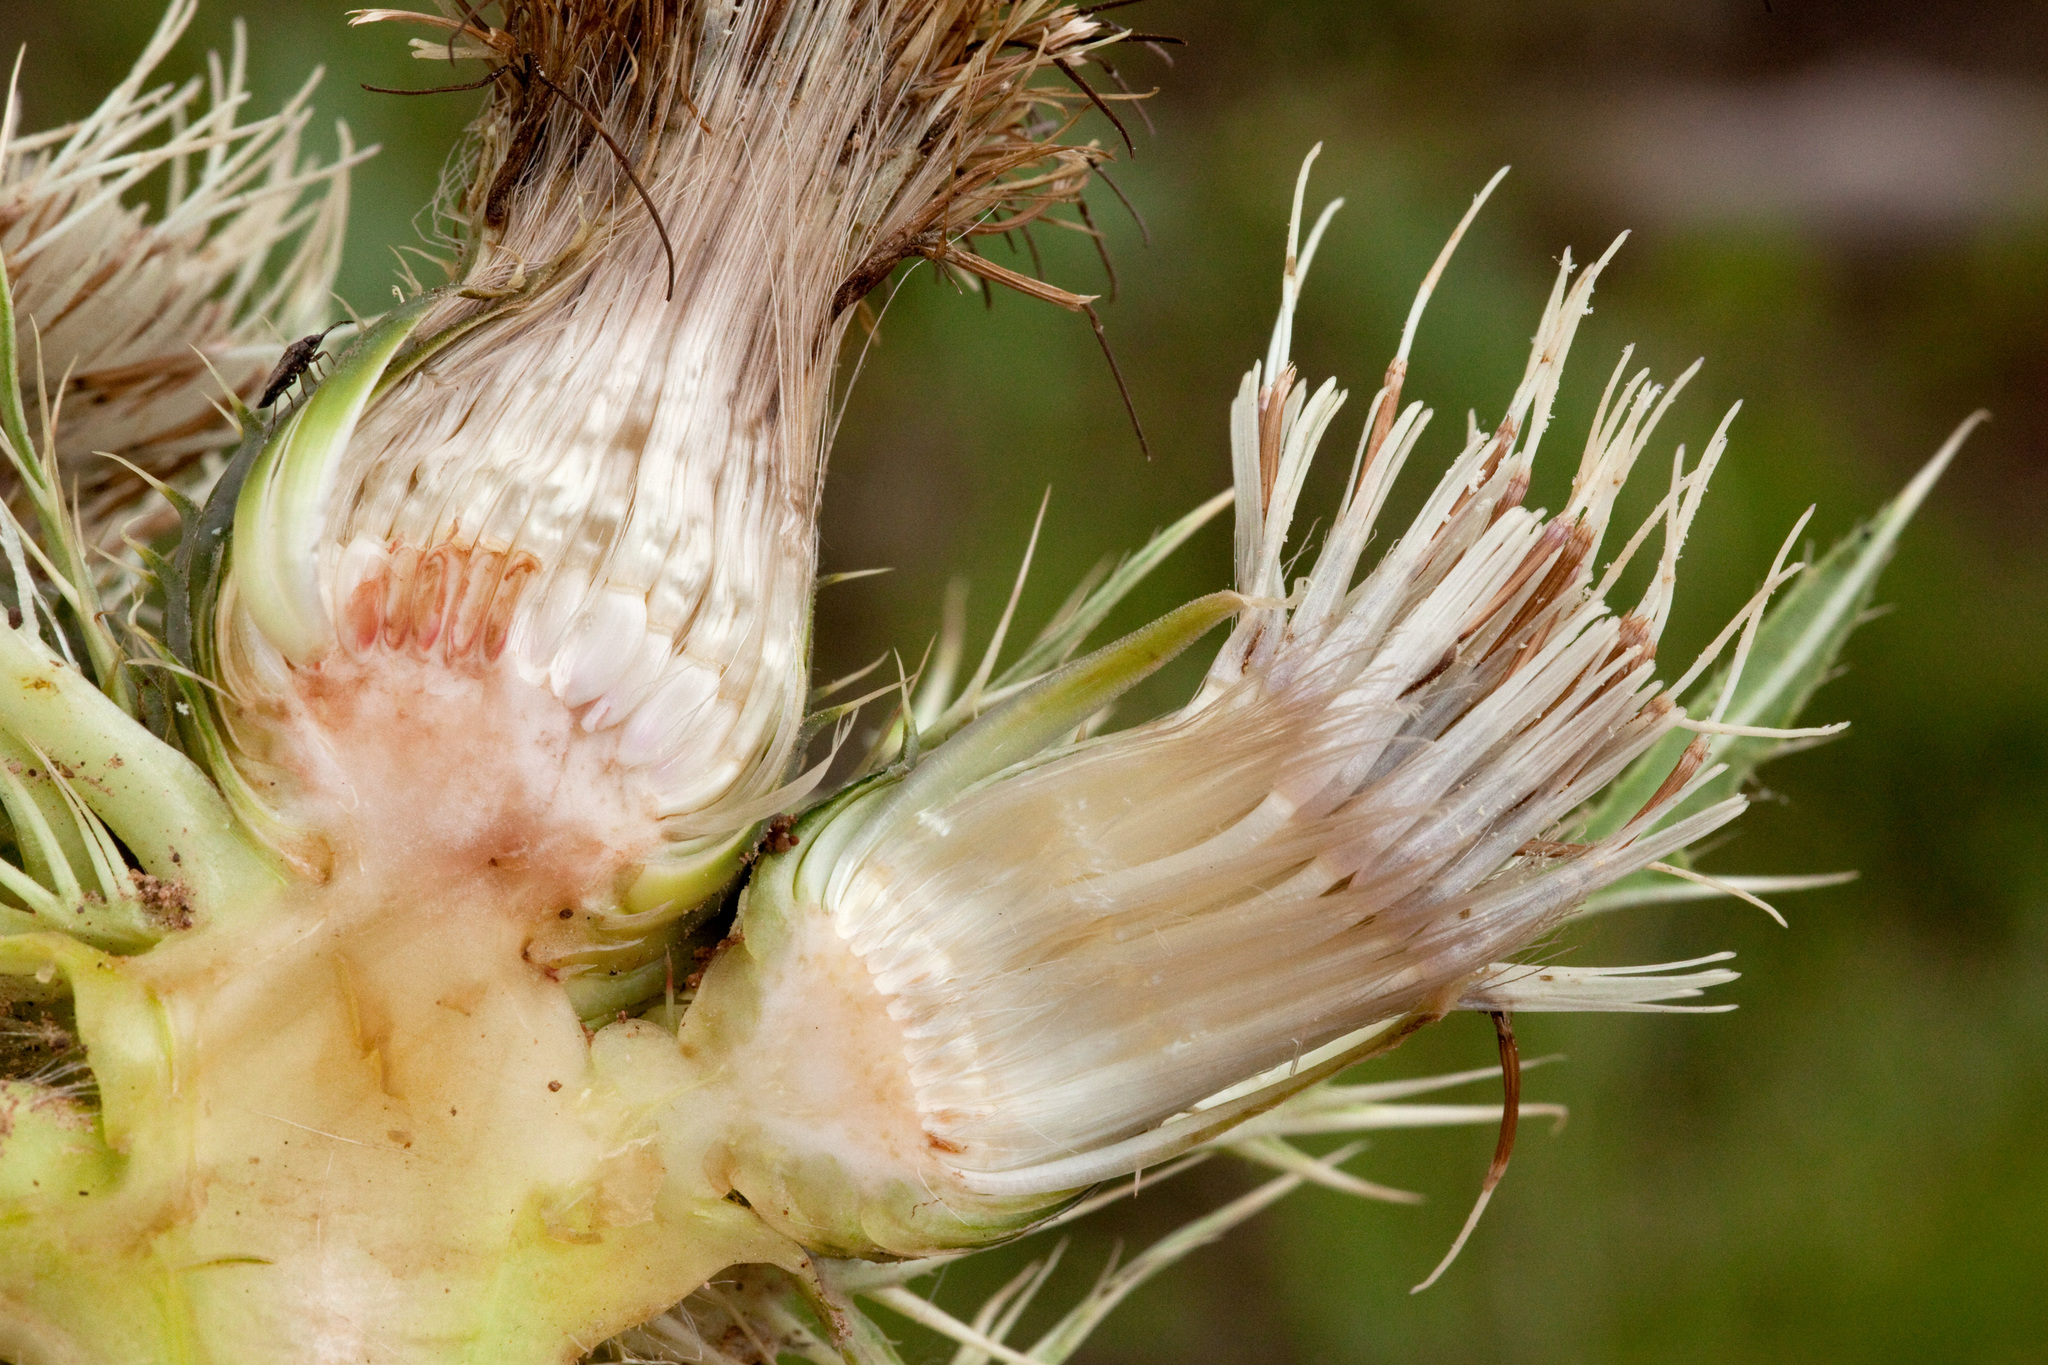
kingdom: Plantae
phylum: Tracheophyta
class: Magnoliopsida
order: Asterales
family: Asteraceae
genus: Cirsium
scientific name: Cirsium coloradense
